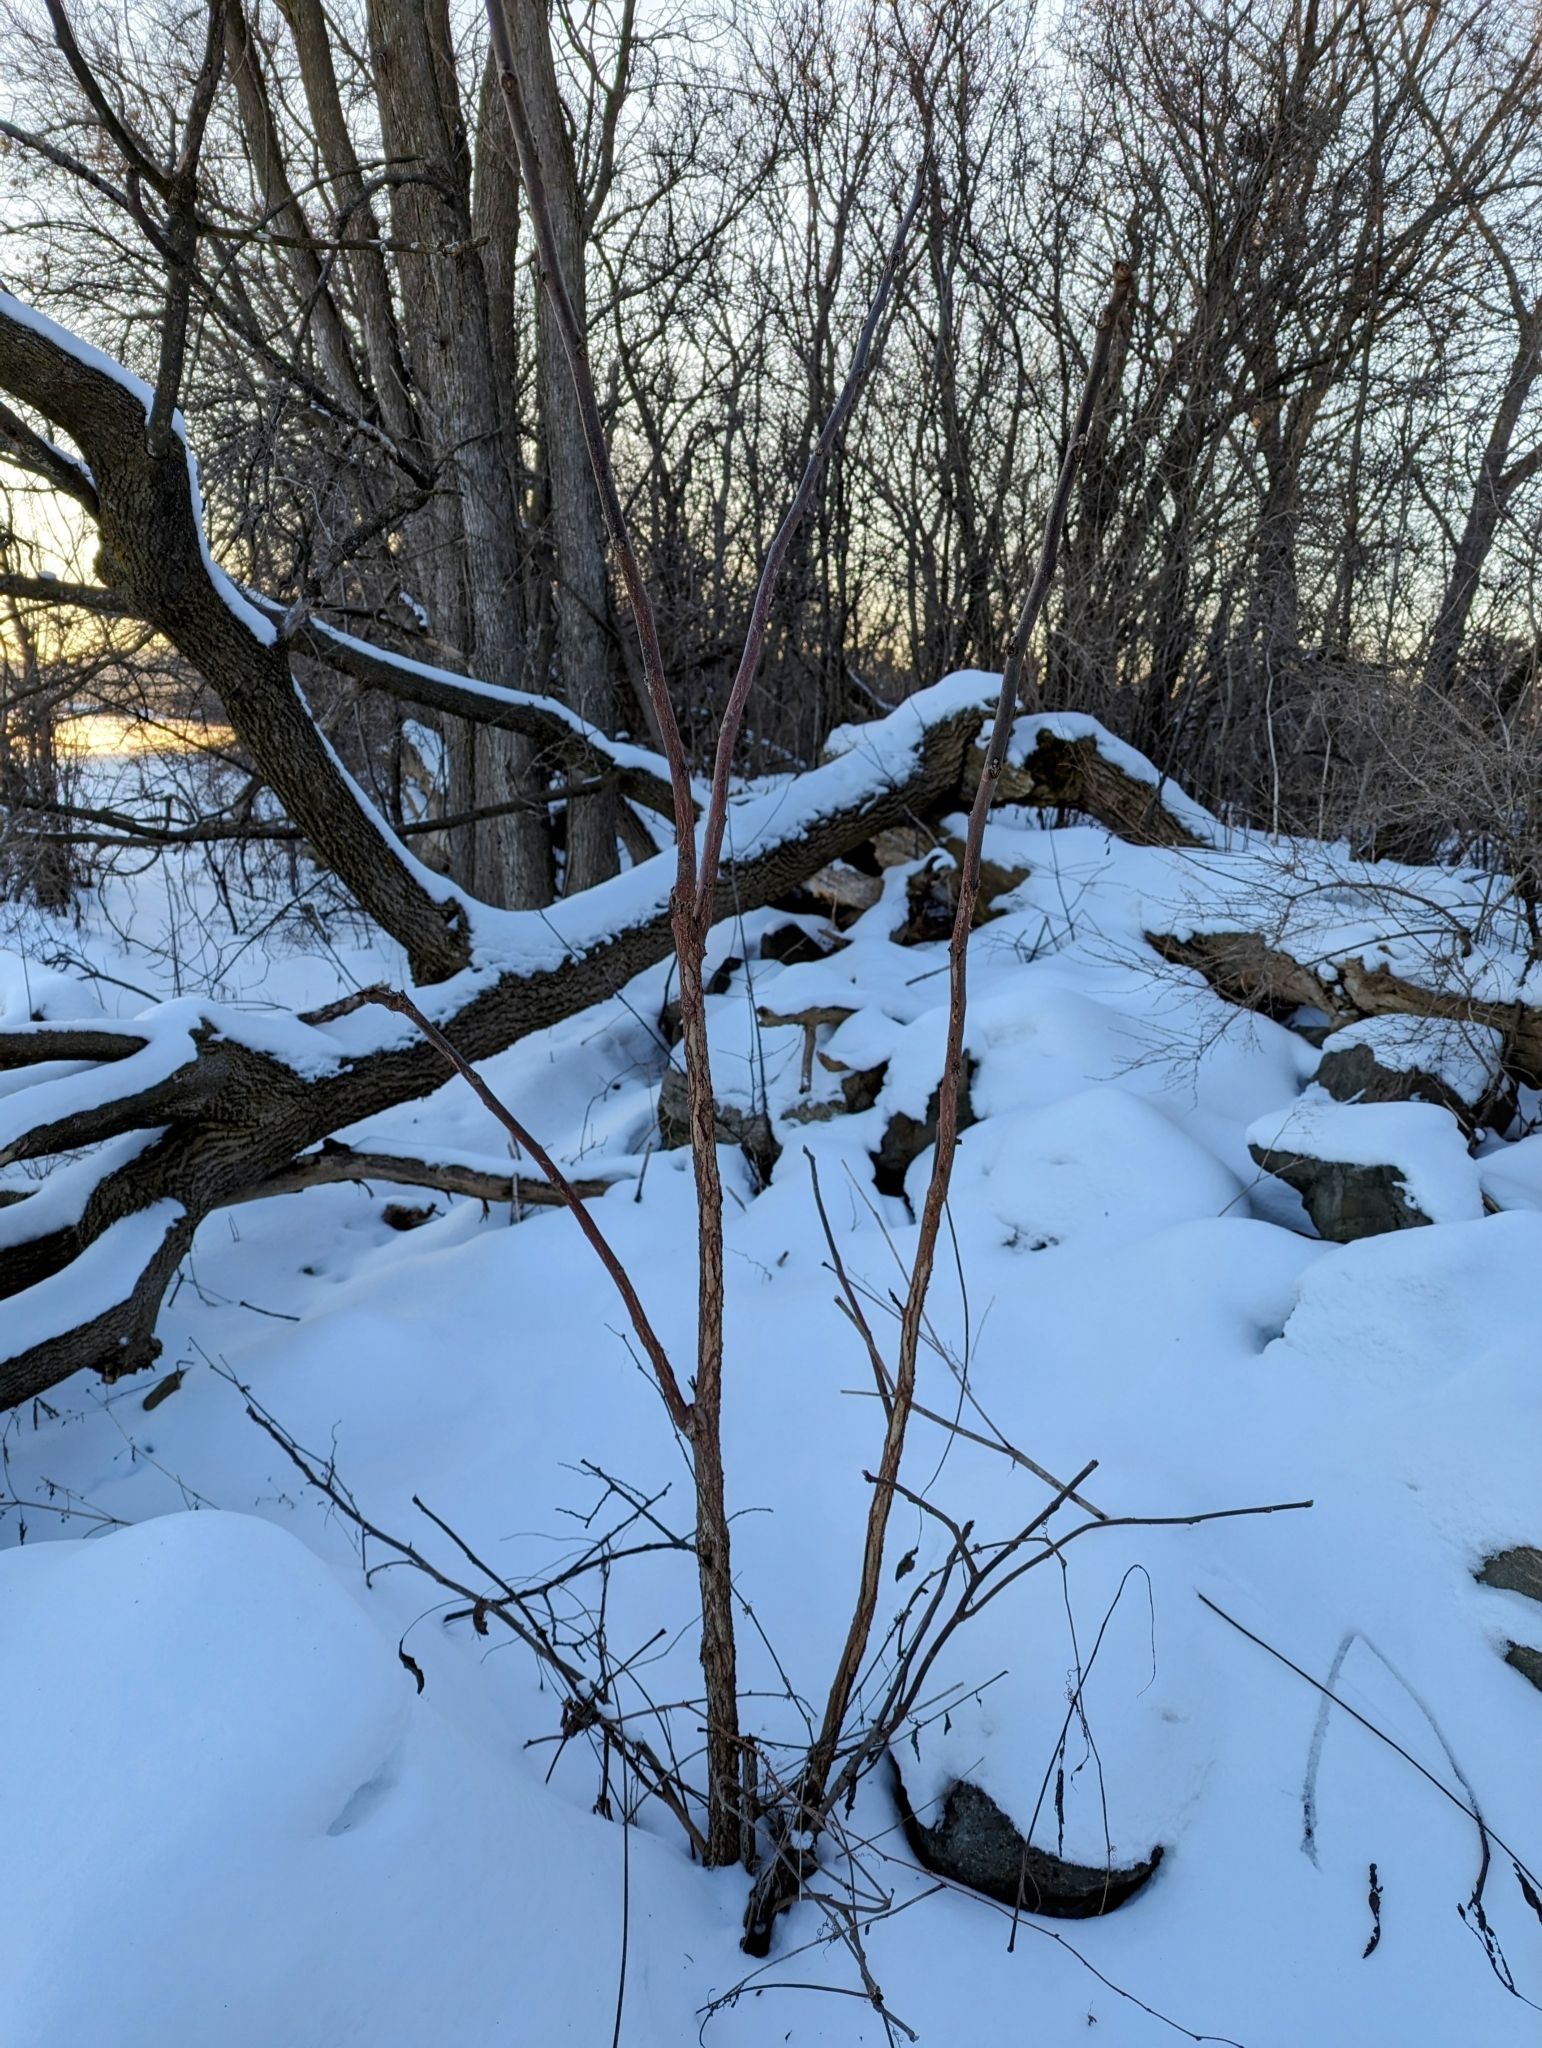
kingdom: Plantae
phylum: Tracheophyta
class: Magnoliopsida
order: Fagales
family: Juglandaceae
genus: Juglans
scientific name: Juglans nigra
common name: Black walnut
